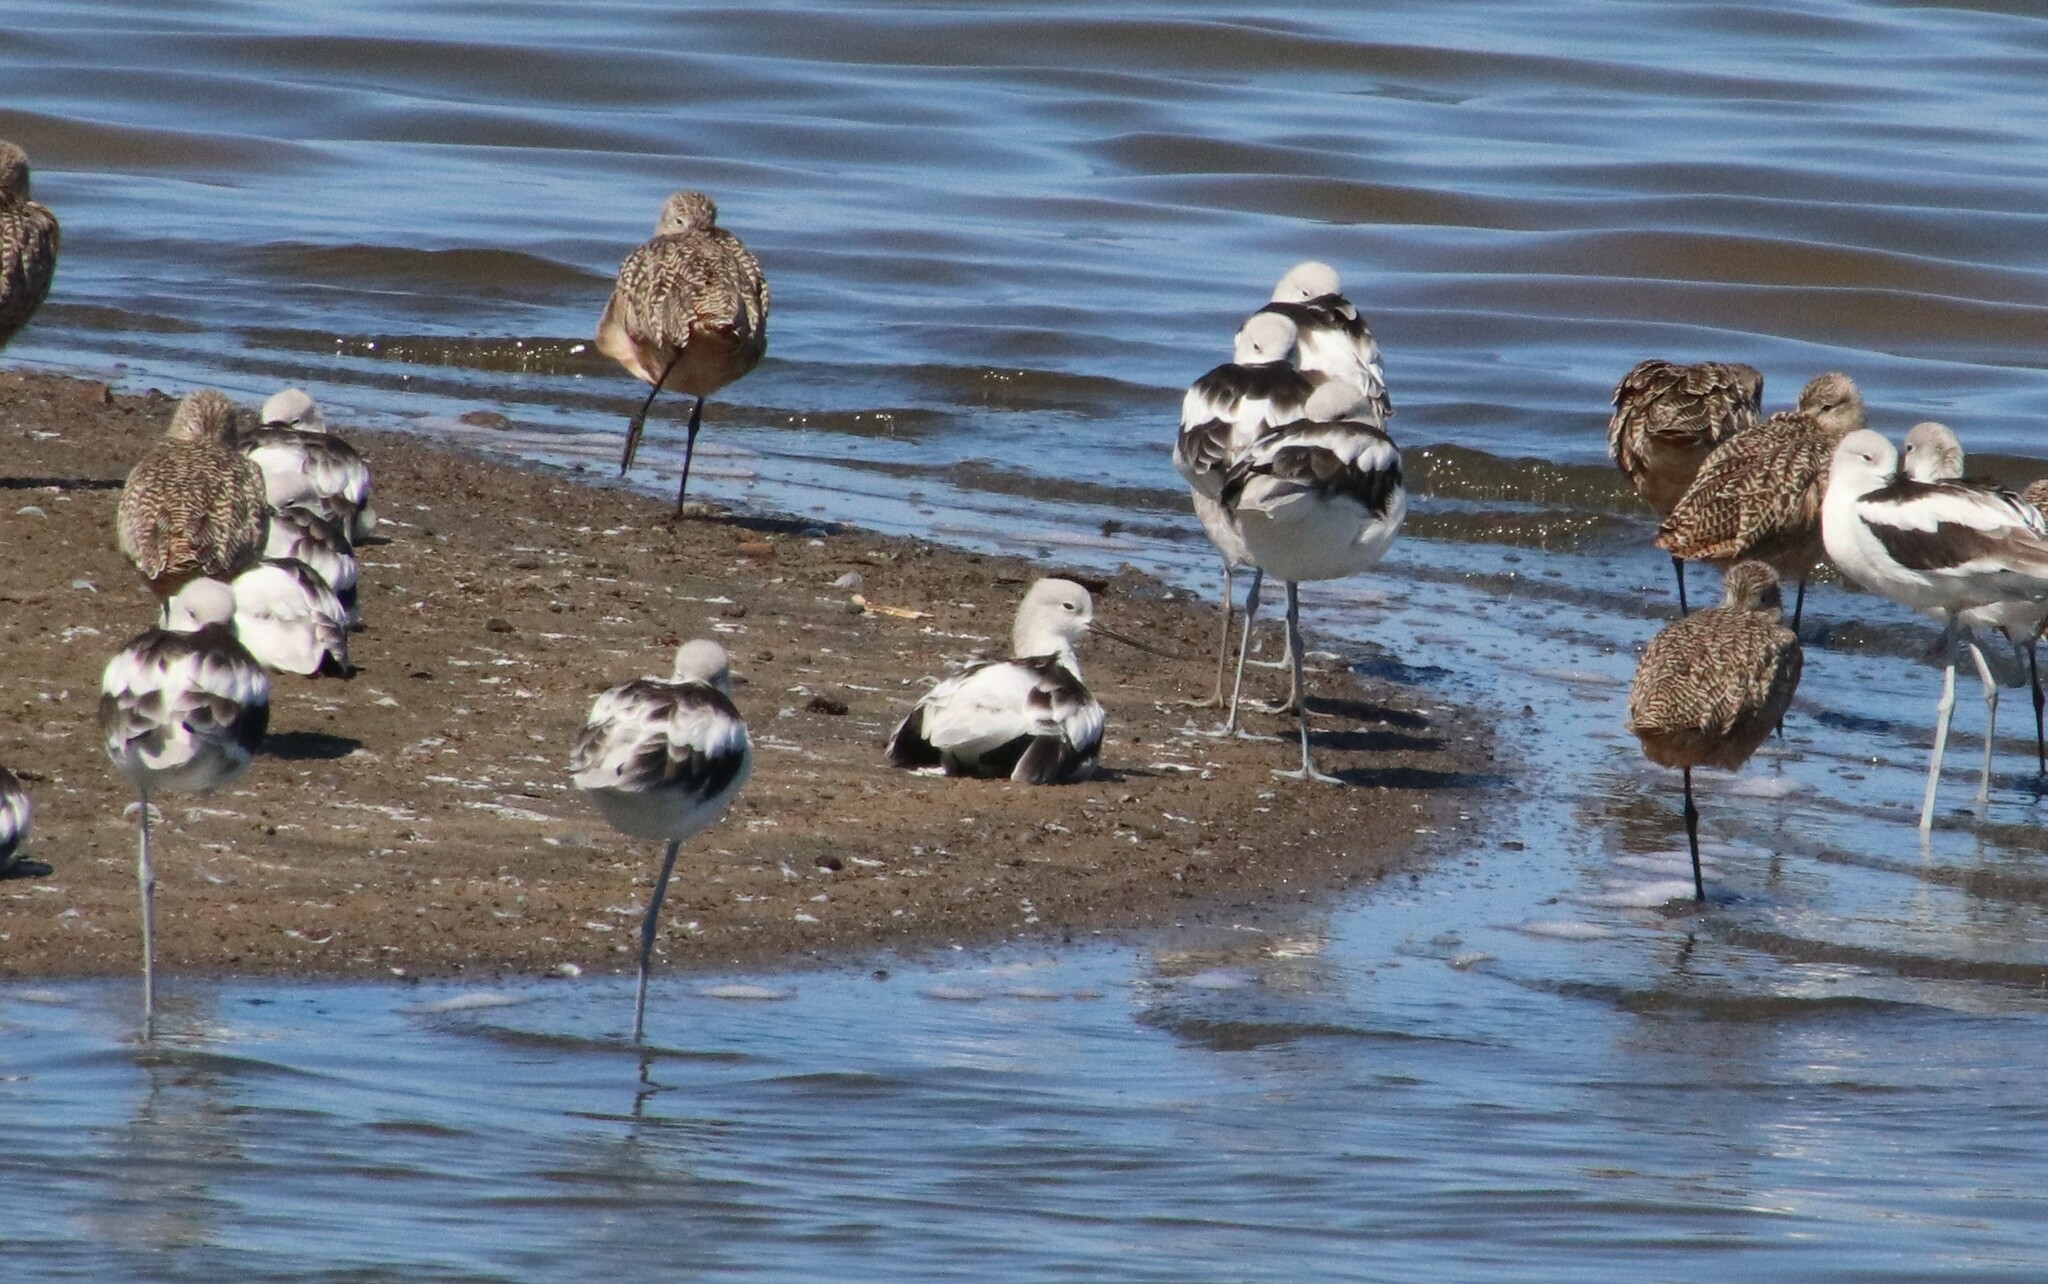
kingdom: Animalia
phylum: Chordata
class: Aves
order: Charadriiformes
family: Recurvirostridae
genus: Recurvirostra
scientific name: Recurvirostra americana
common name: American avocet
